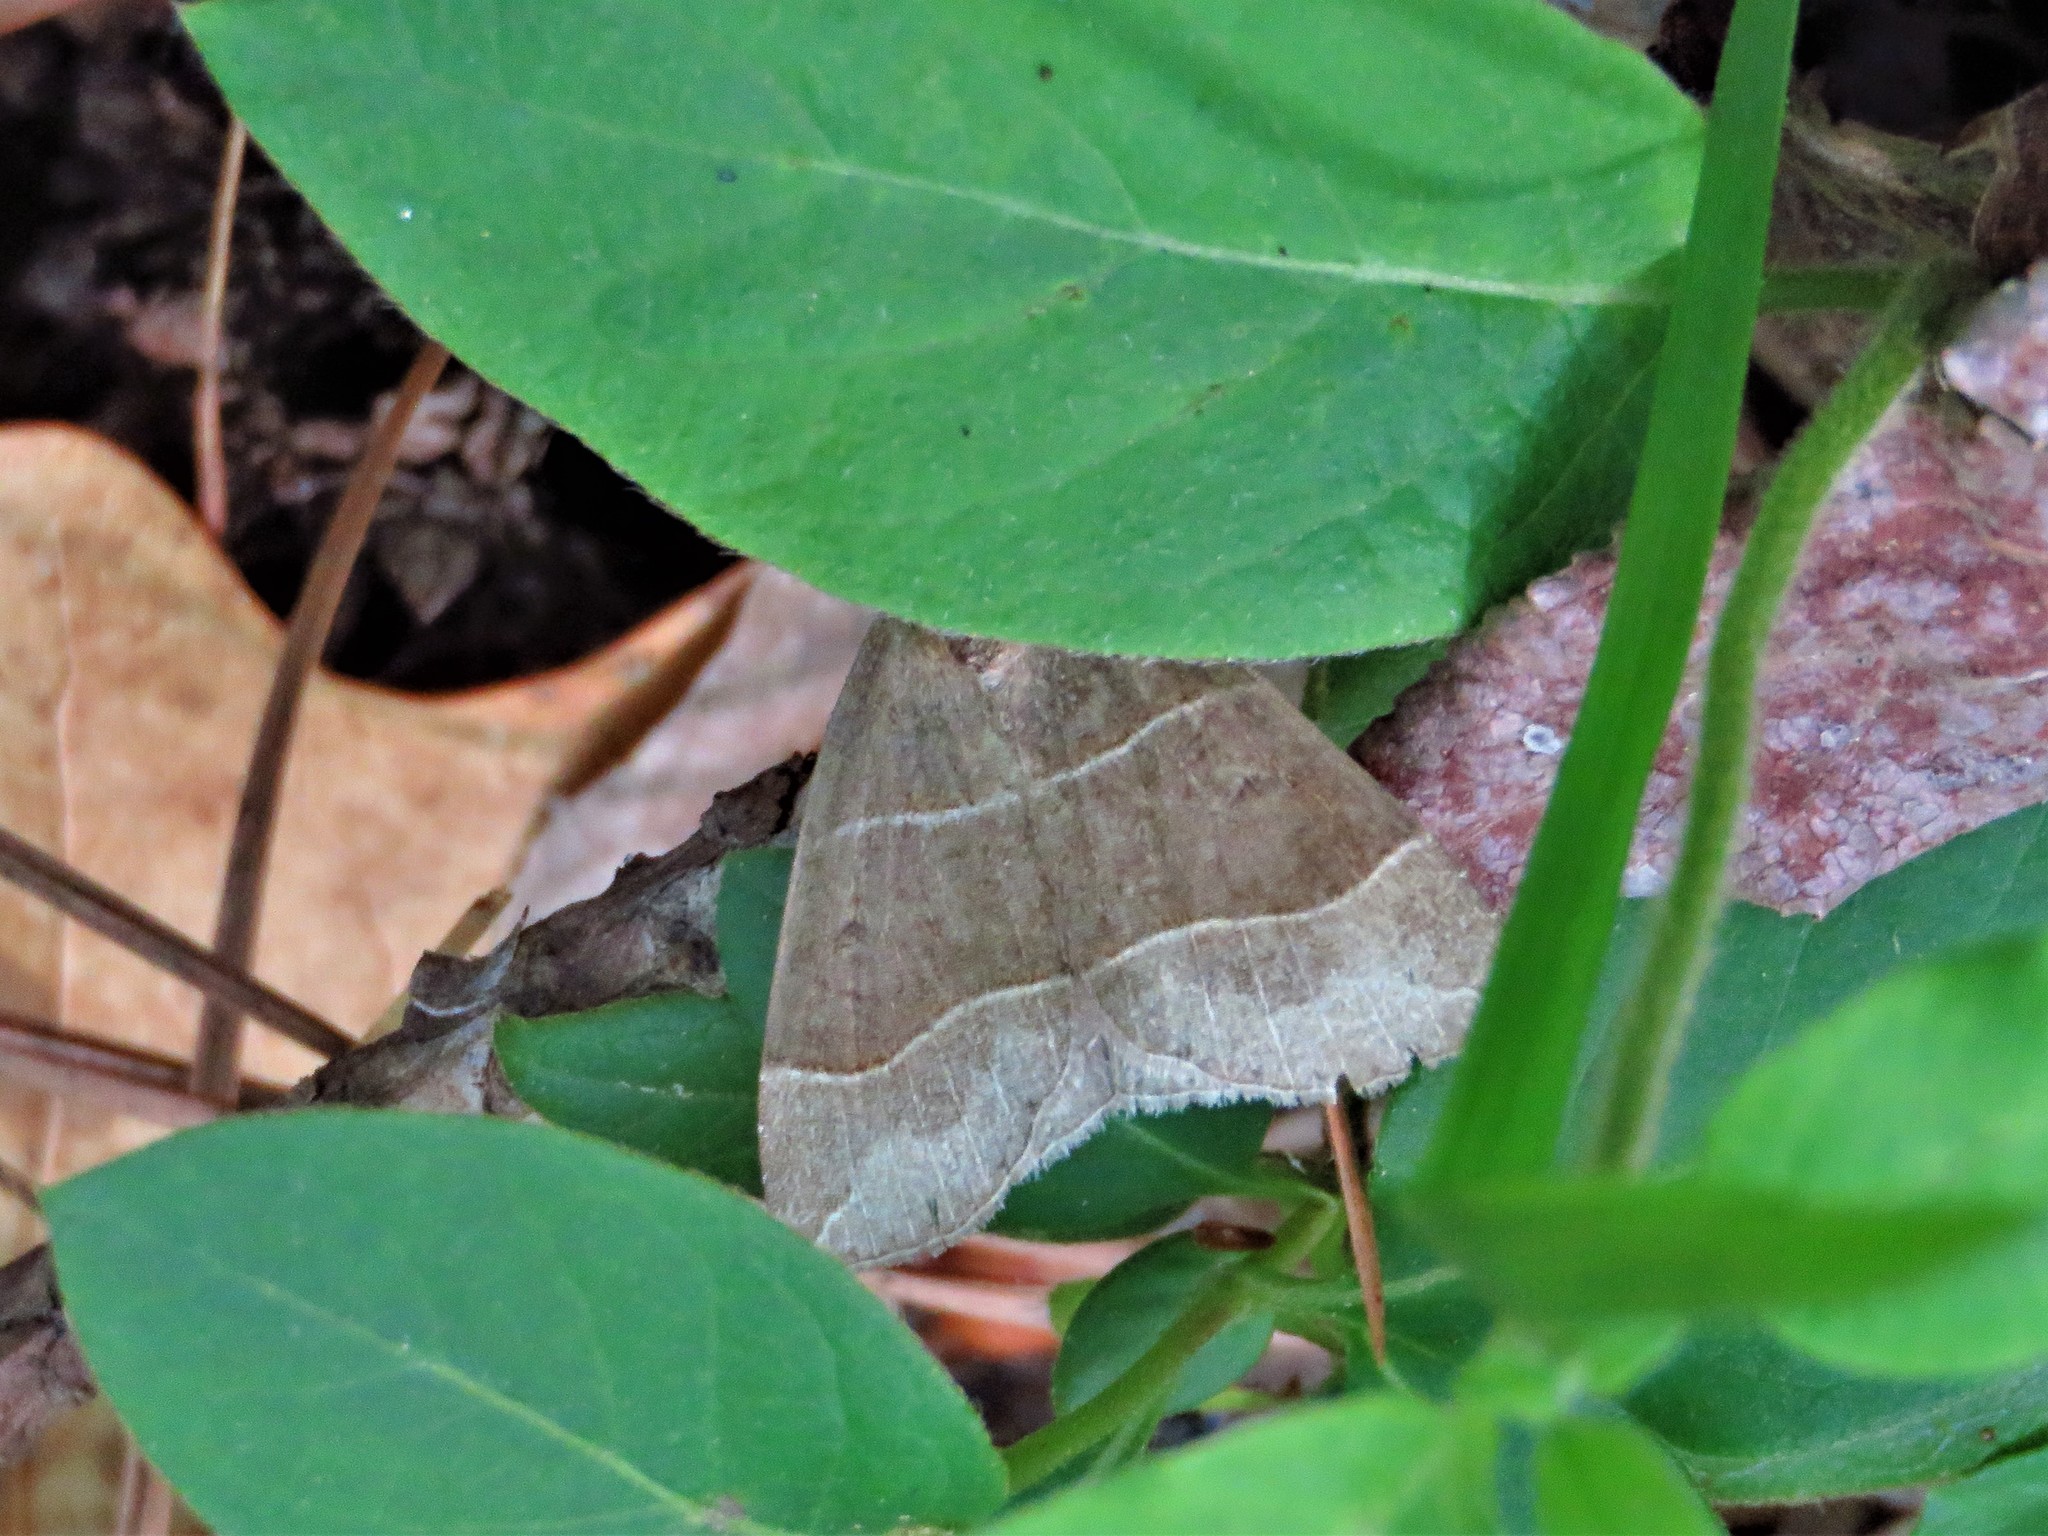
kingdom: Animalia
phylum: Arthropoda
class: Insecta
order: Lepidoptera
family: Erebidae
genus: Parallelia
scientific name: Parallelia bistriaris
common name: Maple looper moth
